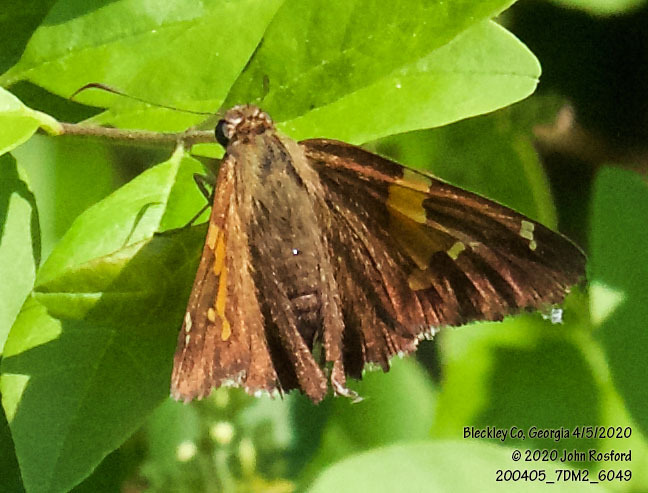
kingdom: Animalia
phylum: Arthropoda
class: Insecta
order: Lepidoptera
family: Hesperiidae
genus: Epargyreus
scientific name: Epargyreus clarus
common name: Silver-spotted skipper
